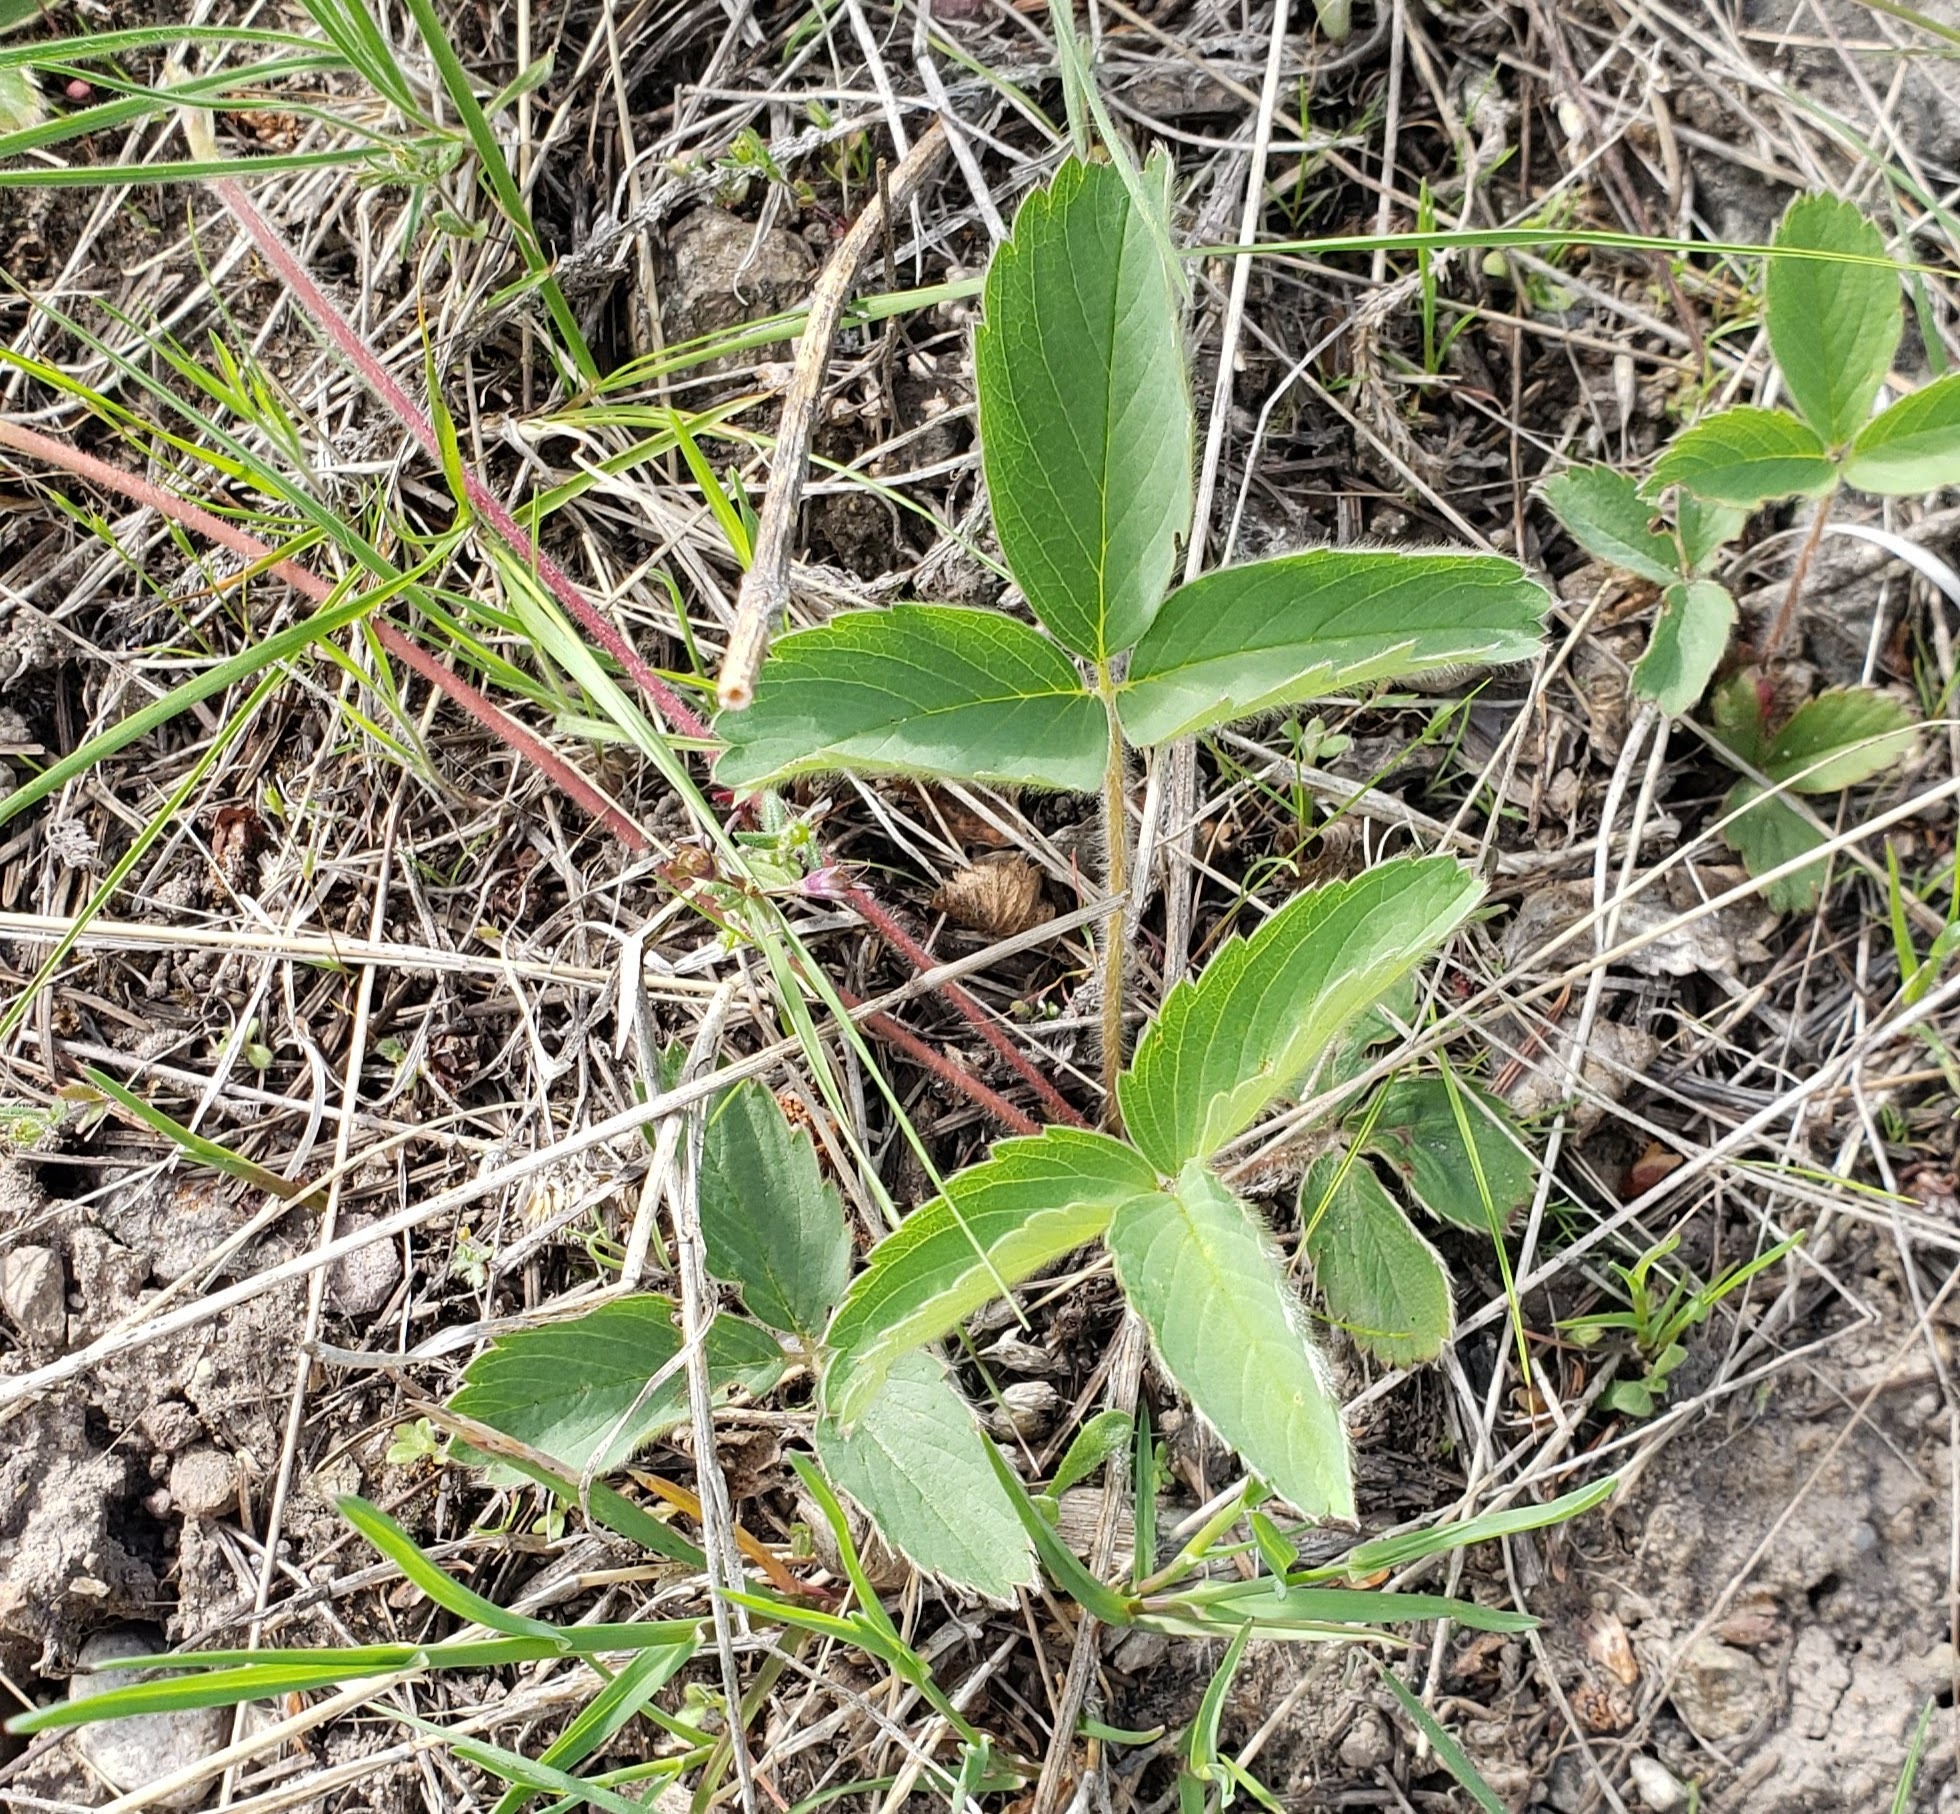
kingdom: Plantae
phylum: Tracheophyta
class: Magnoliopsida
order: Rosales
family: Rosaceae
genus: Fragaria
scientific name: Fragaria virginiana
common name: Thickleaved wild strawberry
